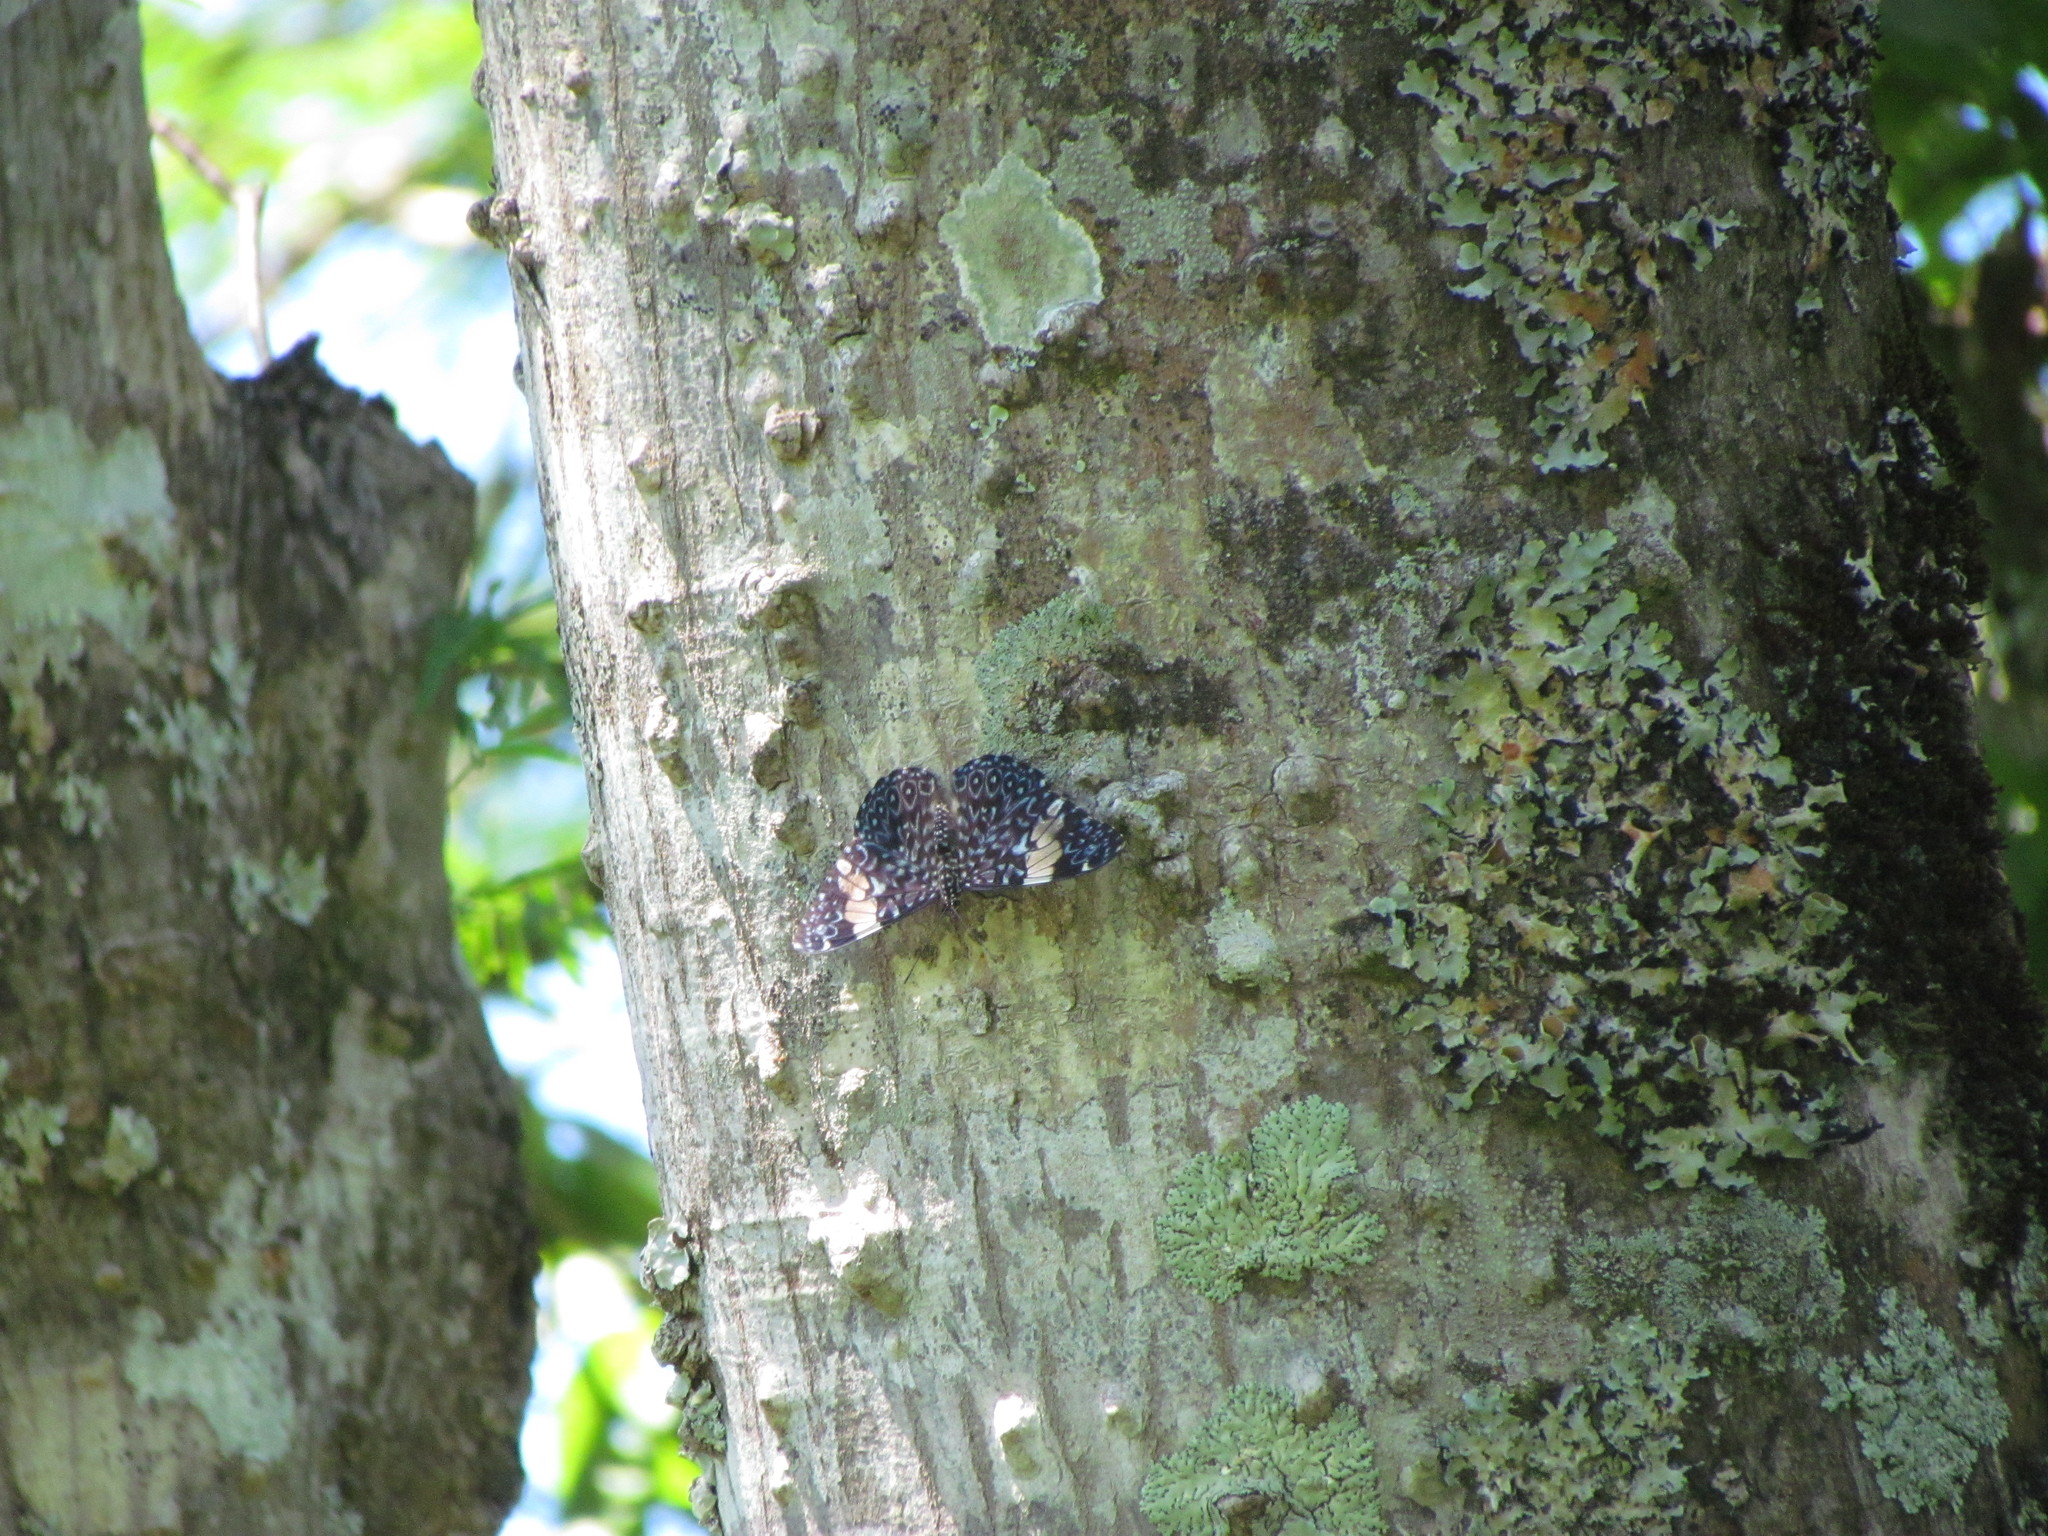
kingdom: Animalia
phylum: Arthropoda
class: Insecta
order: Lepidoptera
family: Nymphalidae
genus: Hamadryas
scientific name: Hamadryas amphinome
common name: Red cracker
